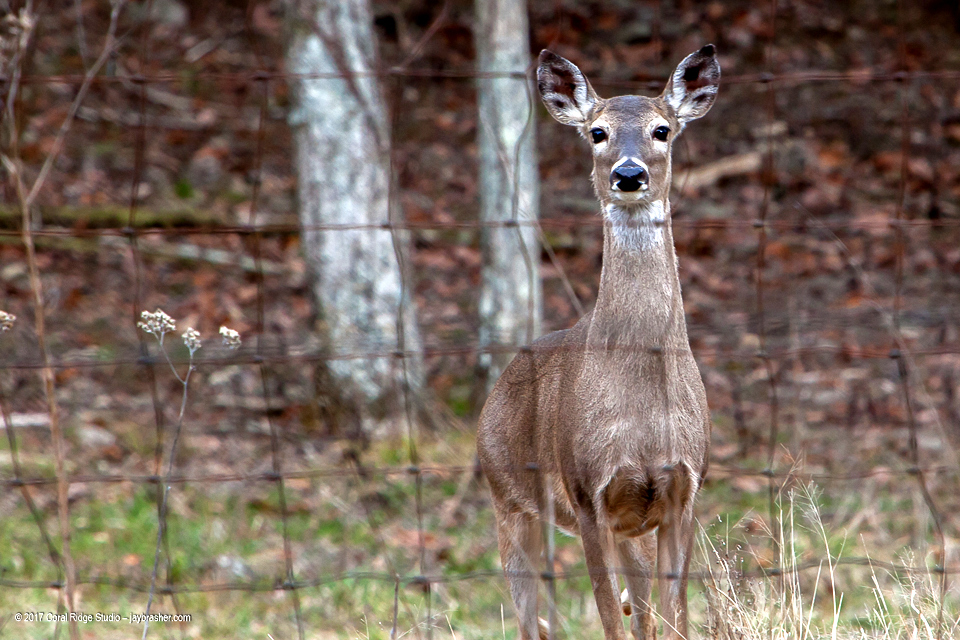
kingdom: Animalia
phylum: Chordata
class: Mammalia
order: Artiodactyla
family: Cervidae
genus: Odocoileus
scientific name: Odocoileus virginianus
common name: White-tailed deer
